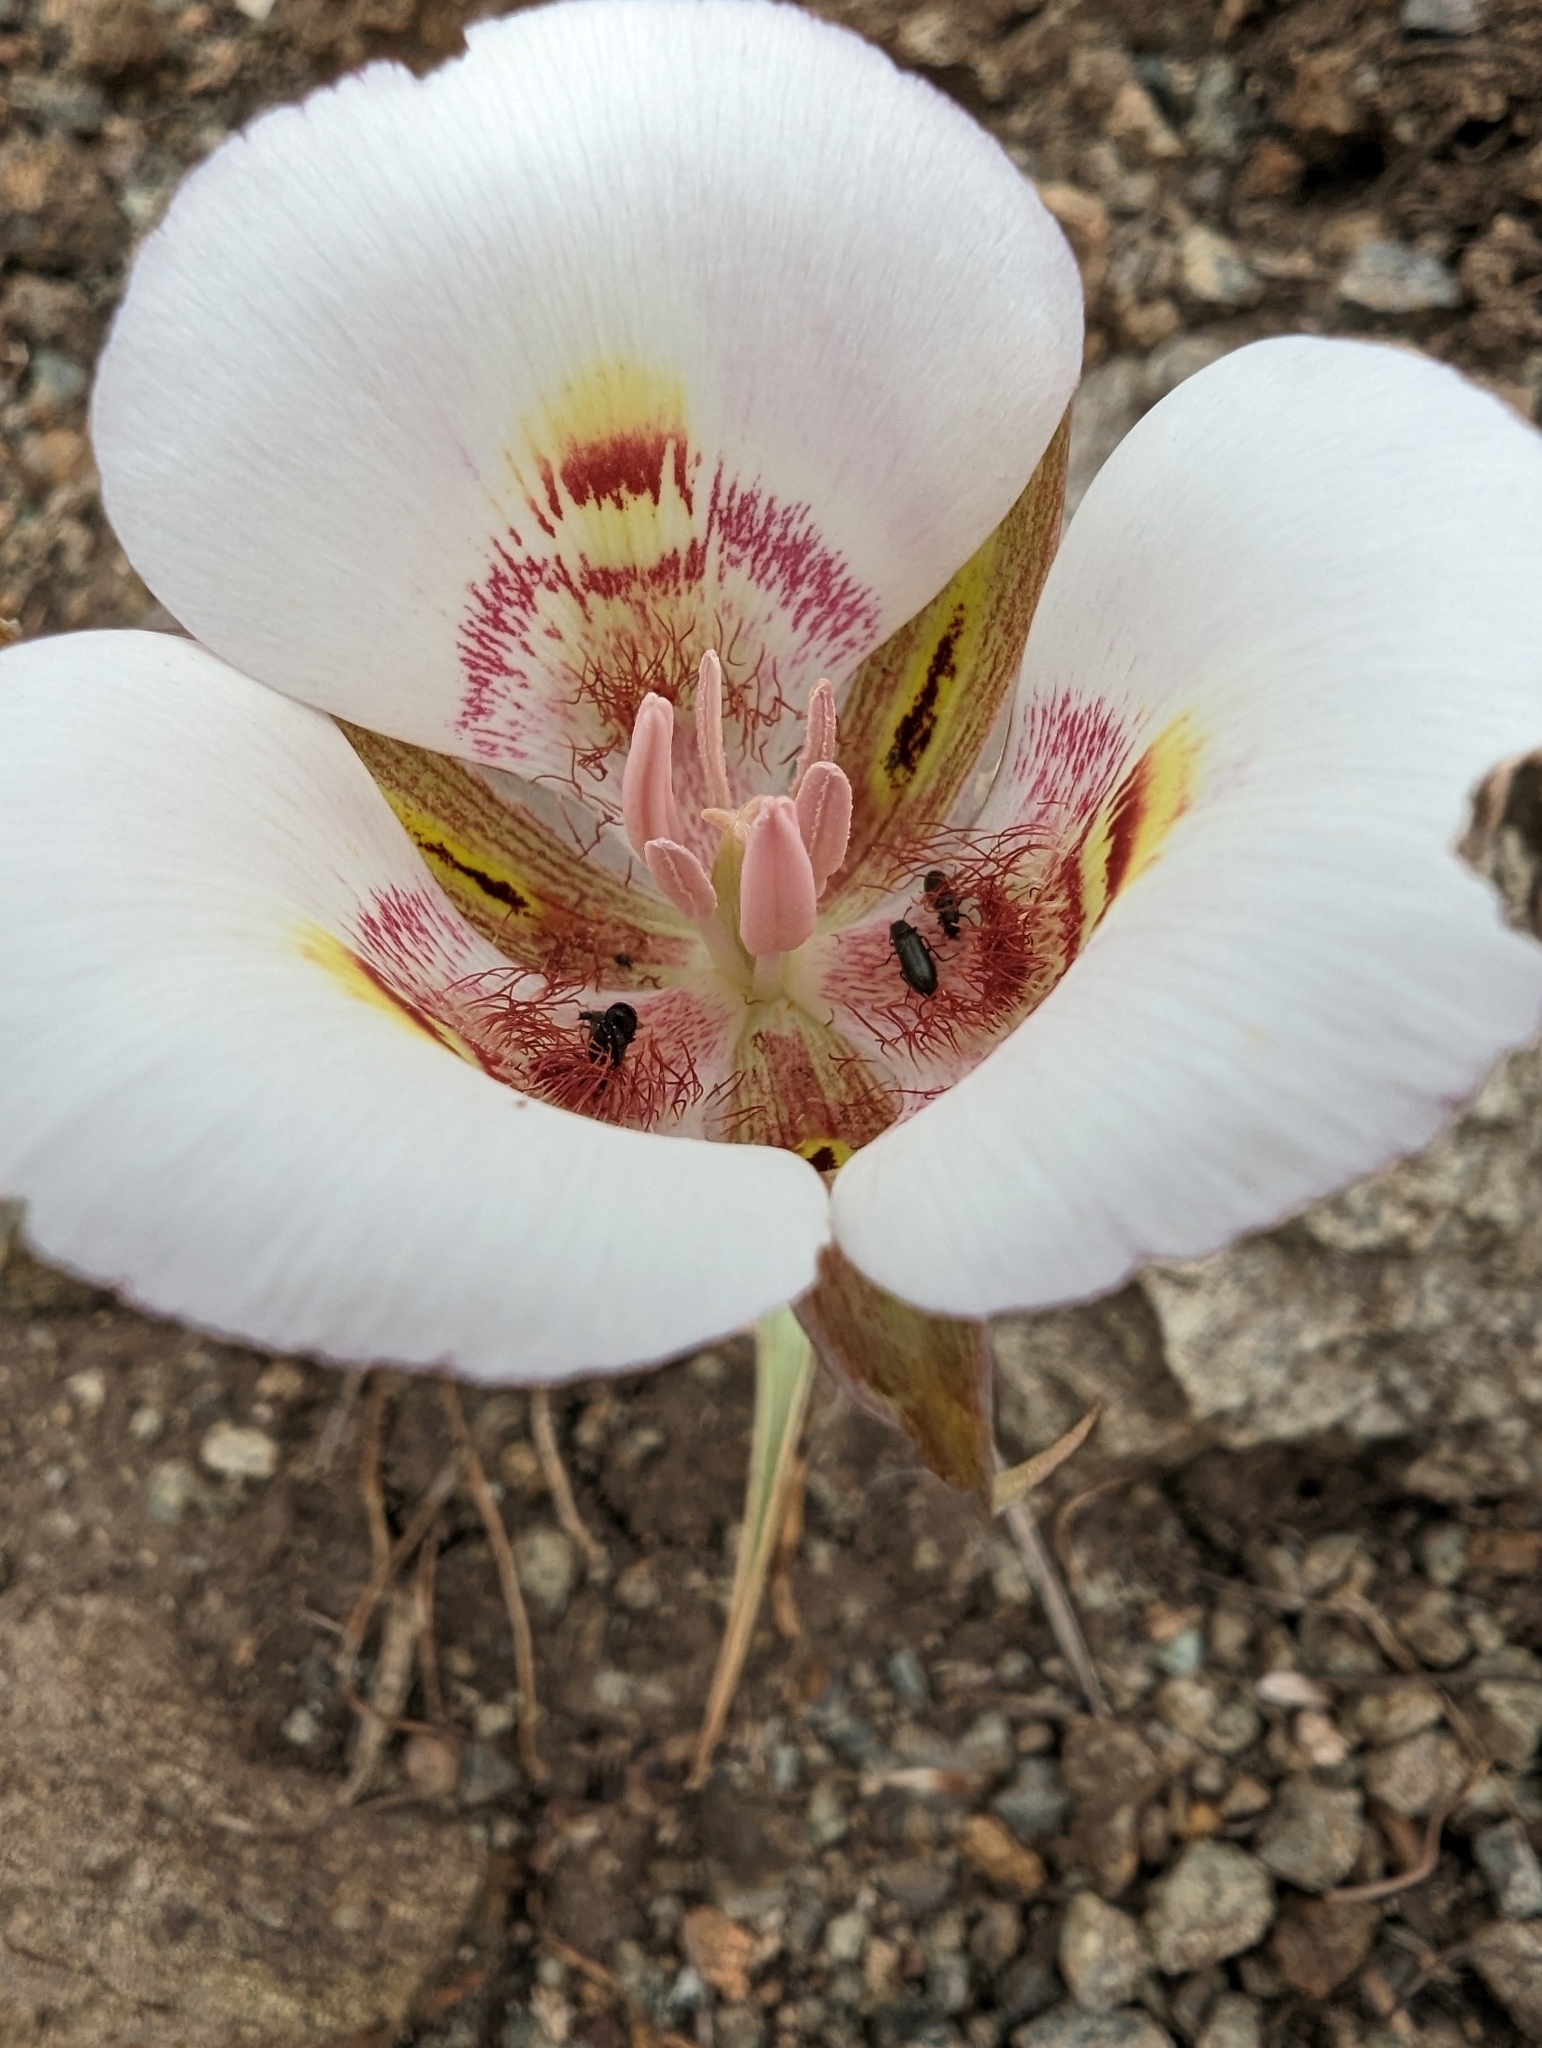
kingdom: Plantae
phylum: Tracheophyta
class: Liliopsida
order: Liliales
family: Liliaceae
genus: Calochortus
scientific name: Calochortus argillosus
